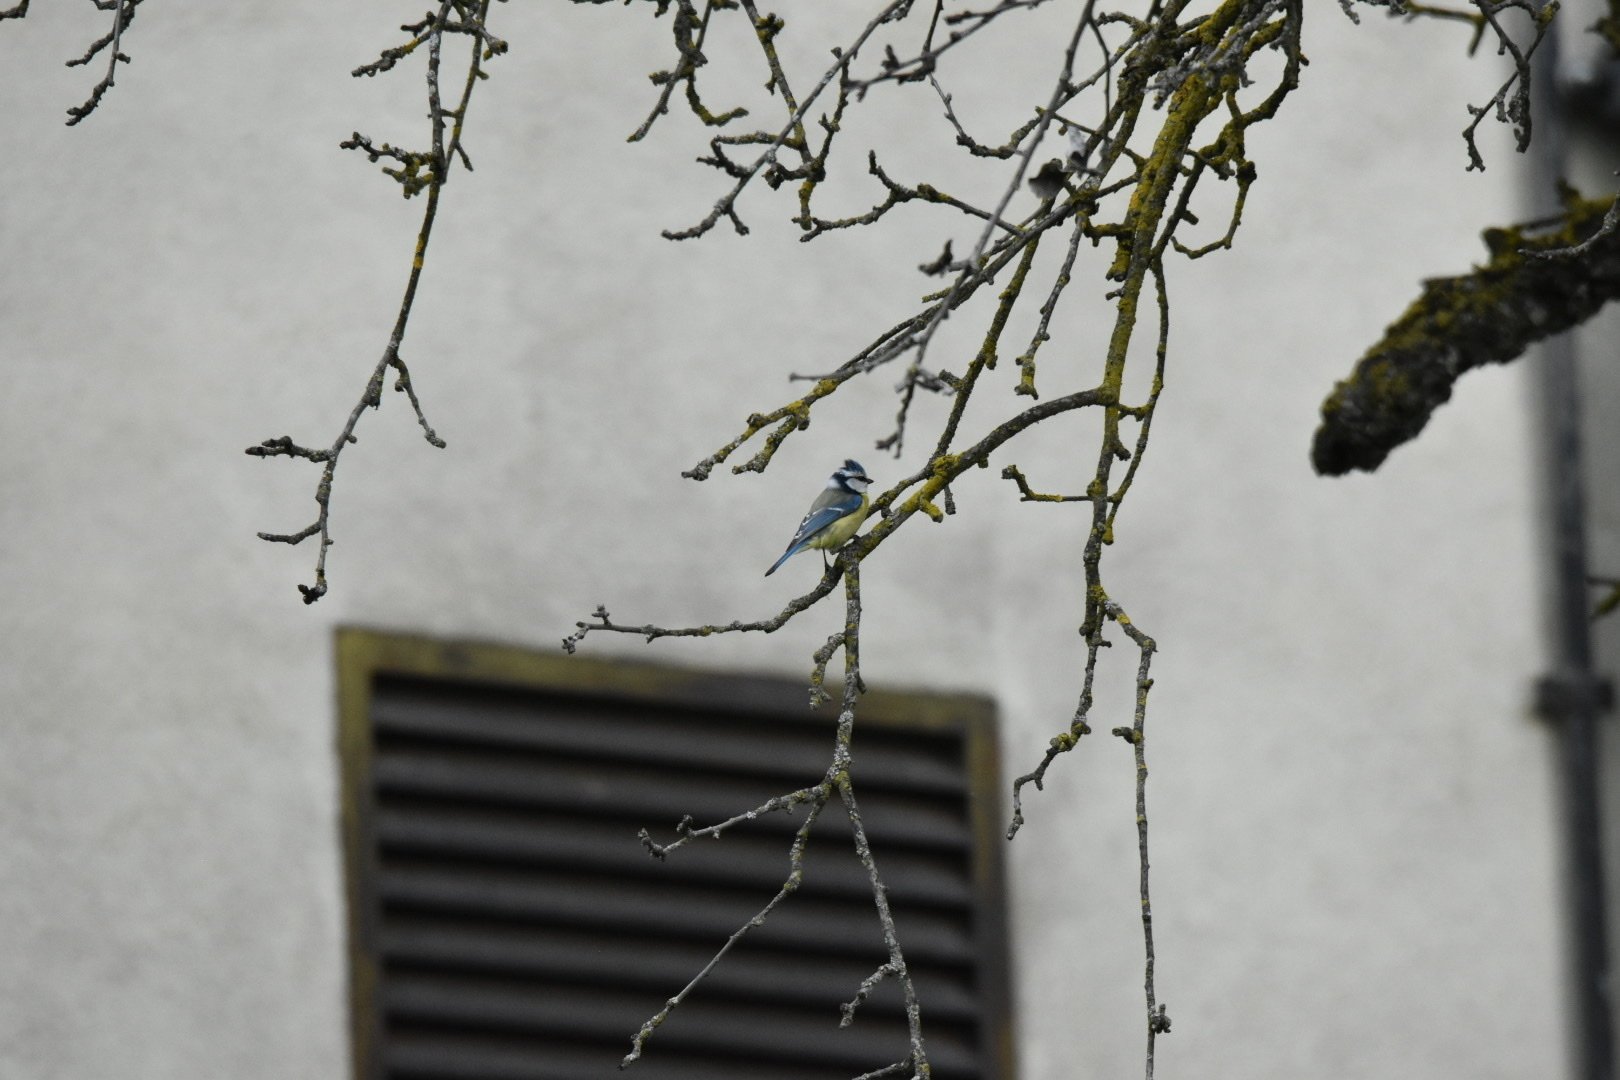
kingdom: Animalia
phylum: Chordata
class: Aves
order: Passeriformes
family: Paridae
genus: Cyanistes
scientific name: Cyanistes caeruleus
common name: Eurasian blue tit
